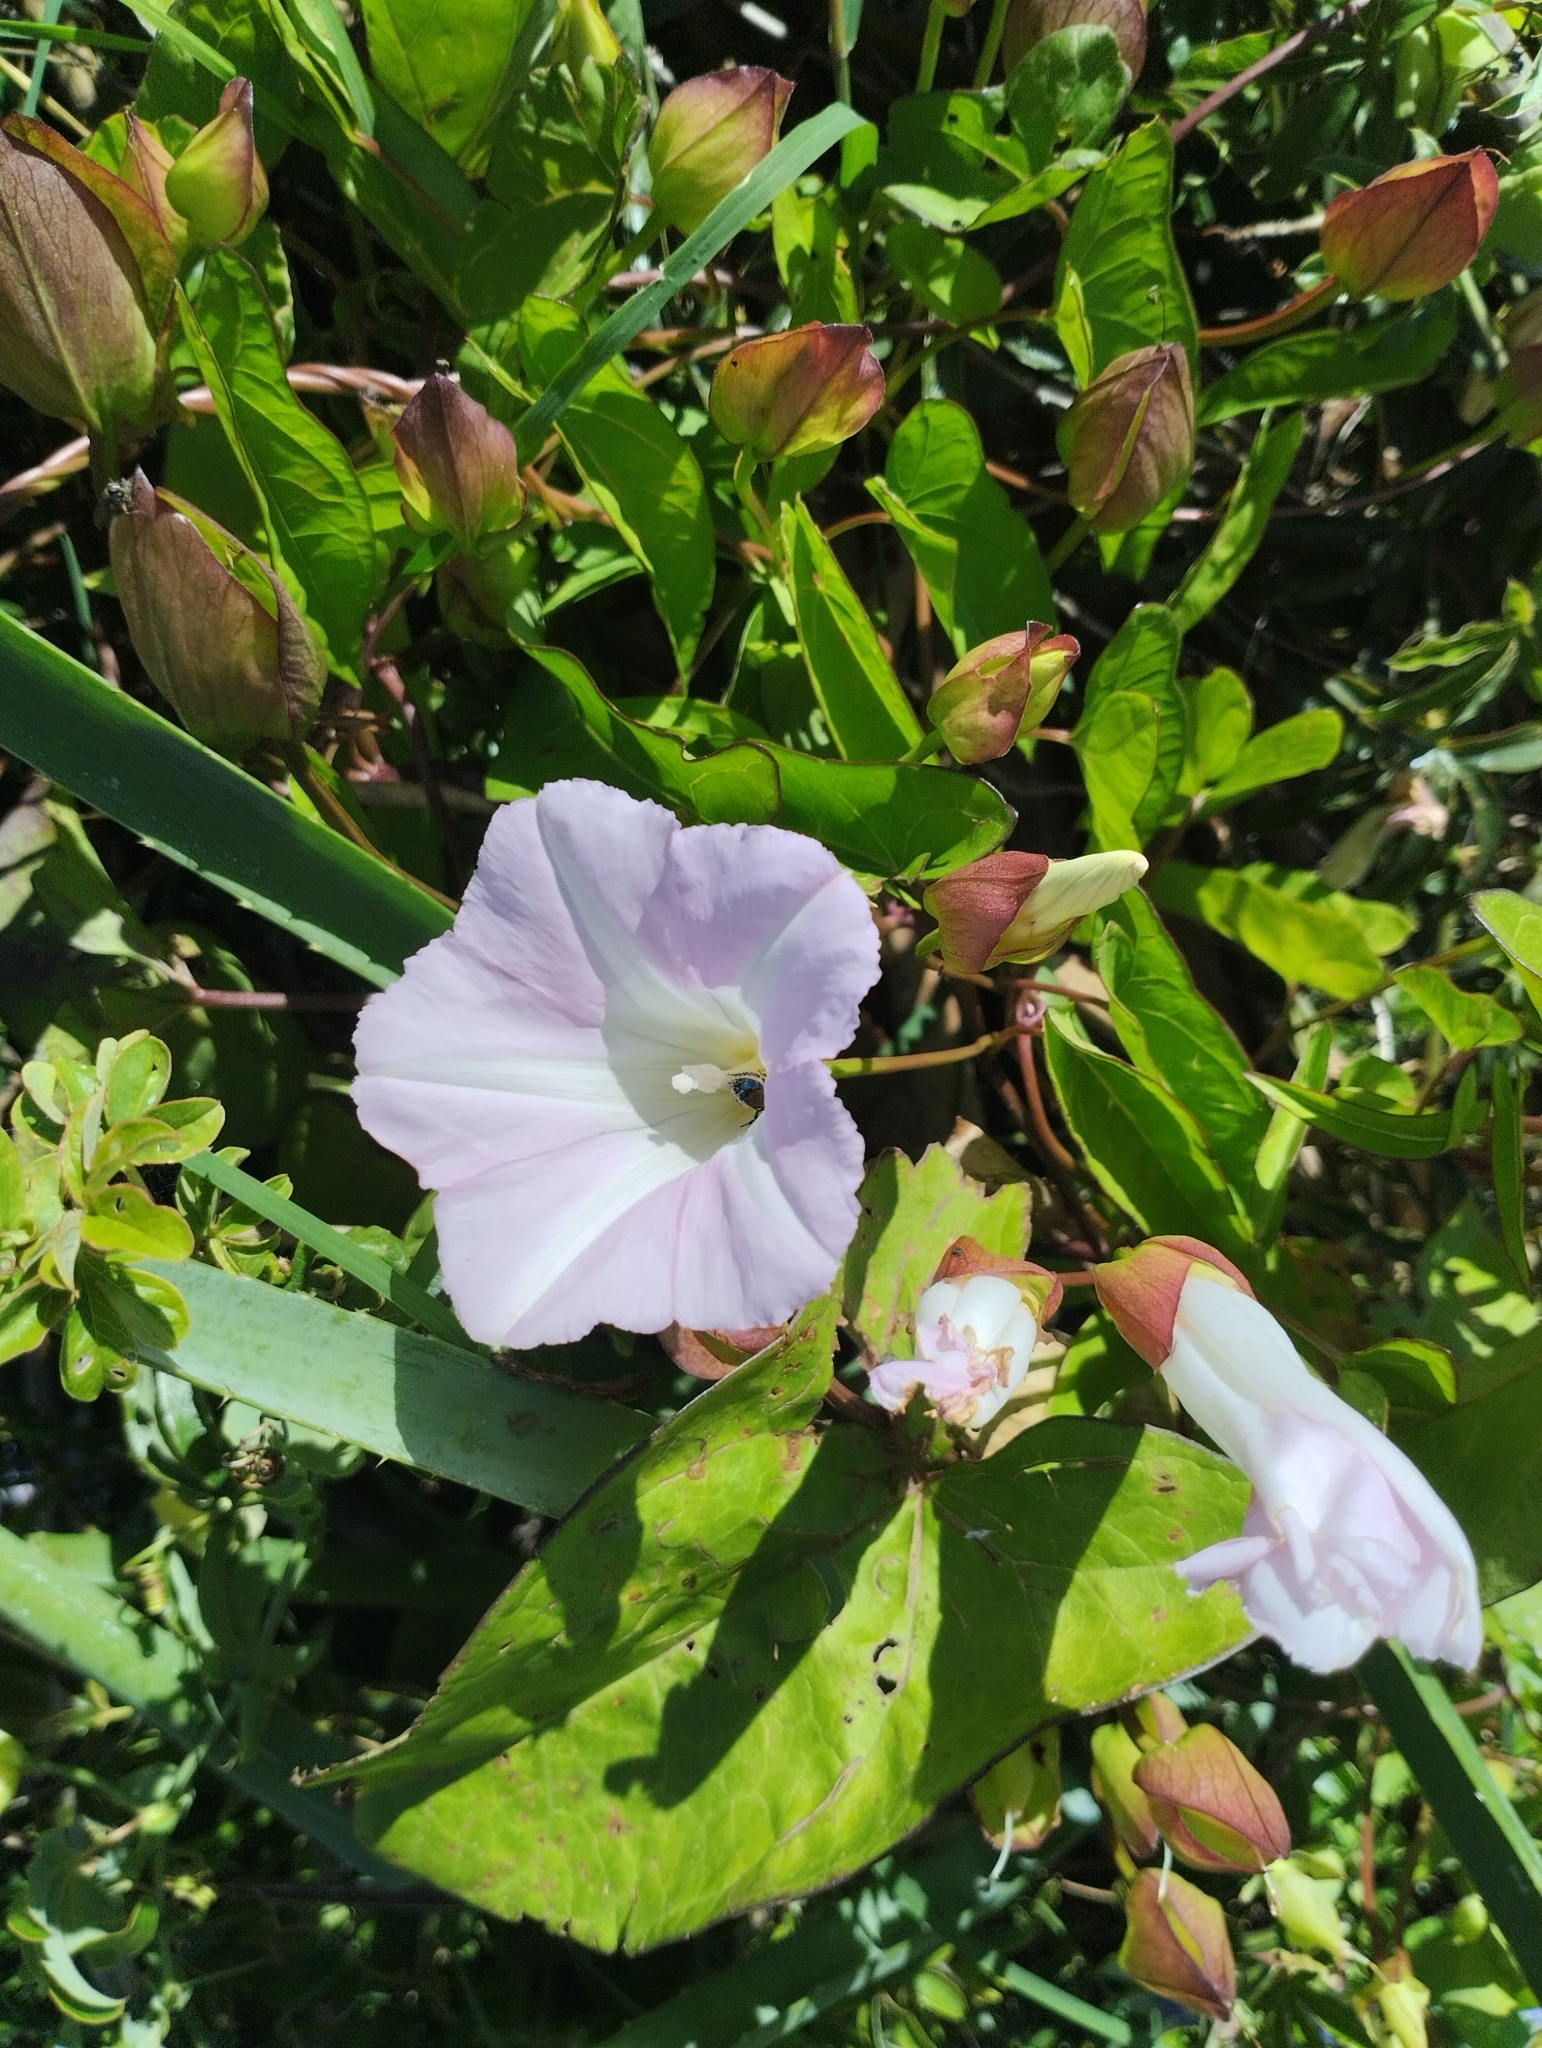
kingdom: Plantae
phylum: Tracheophyta
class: Magnoliopsida
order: Solanales
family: Convolvulaceae
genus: Calystegia
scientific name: Calystegia sepium
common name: Hedge bindweed
